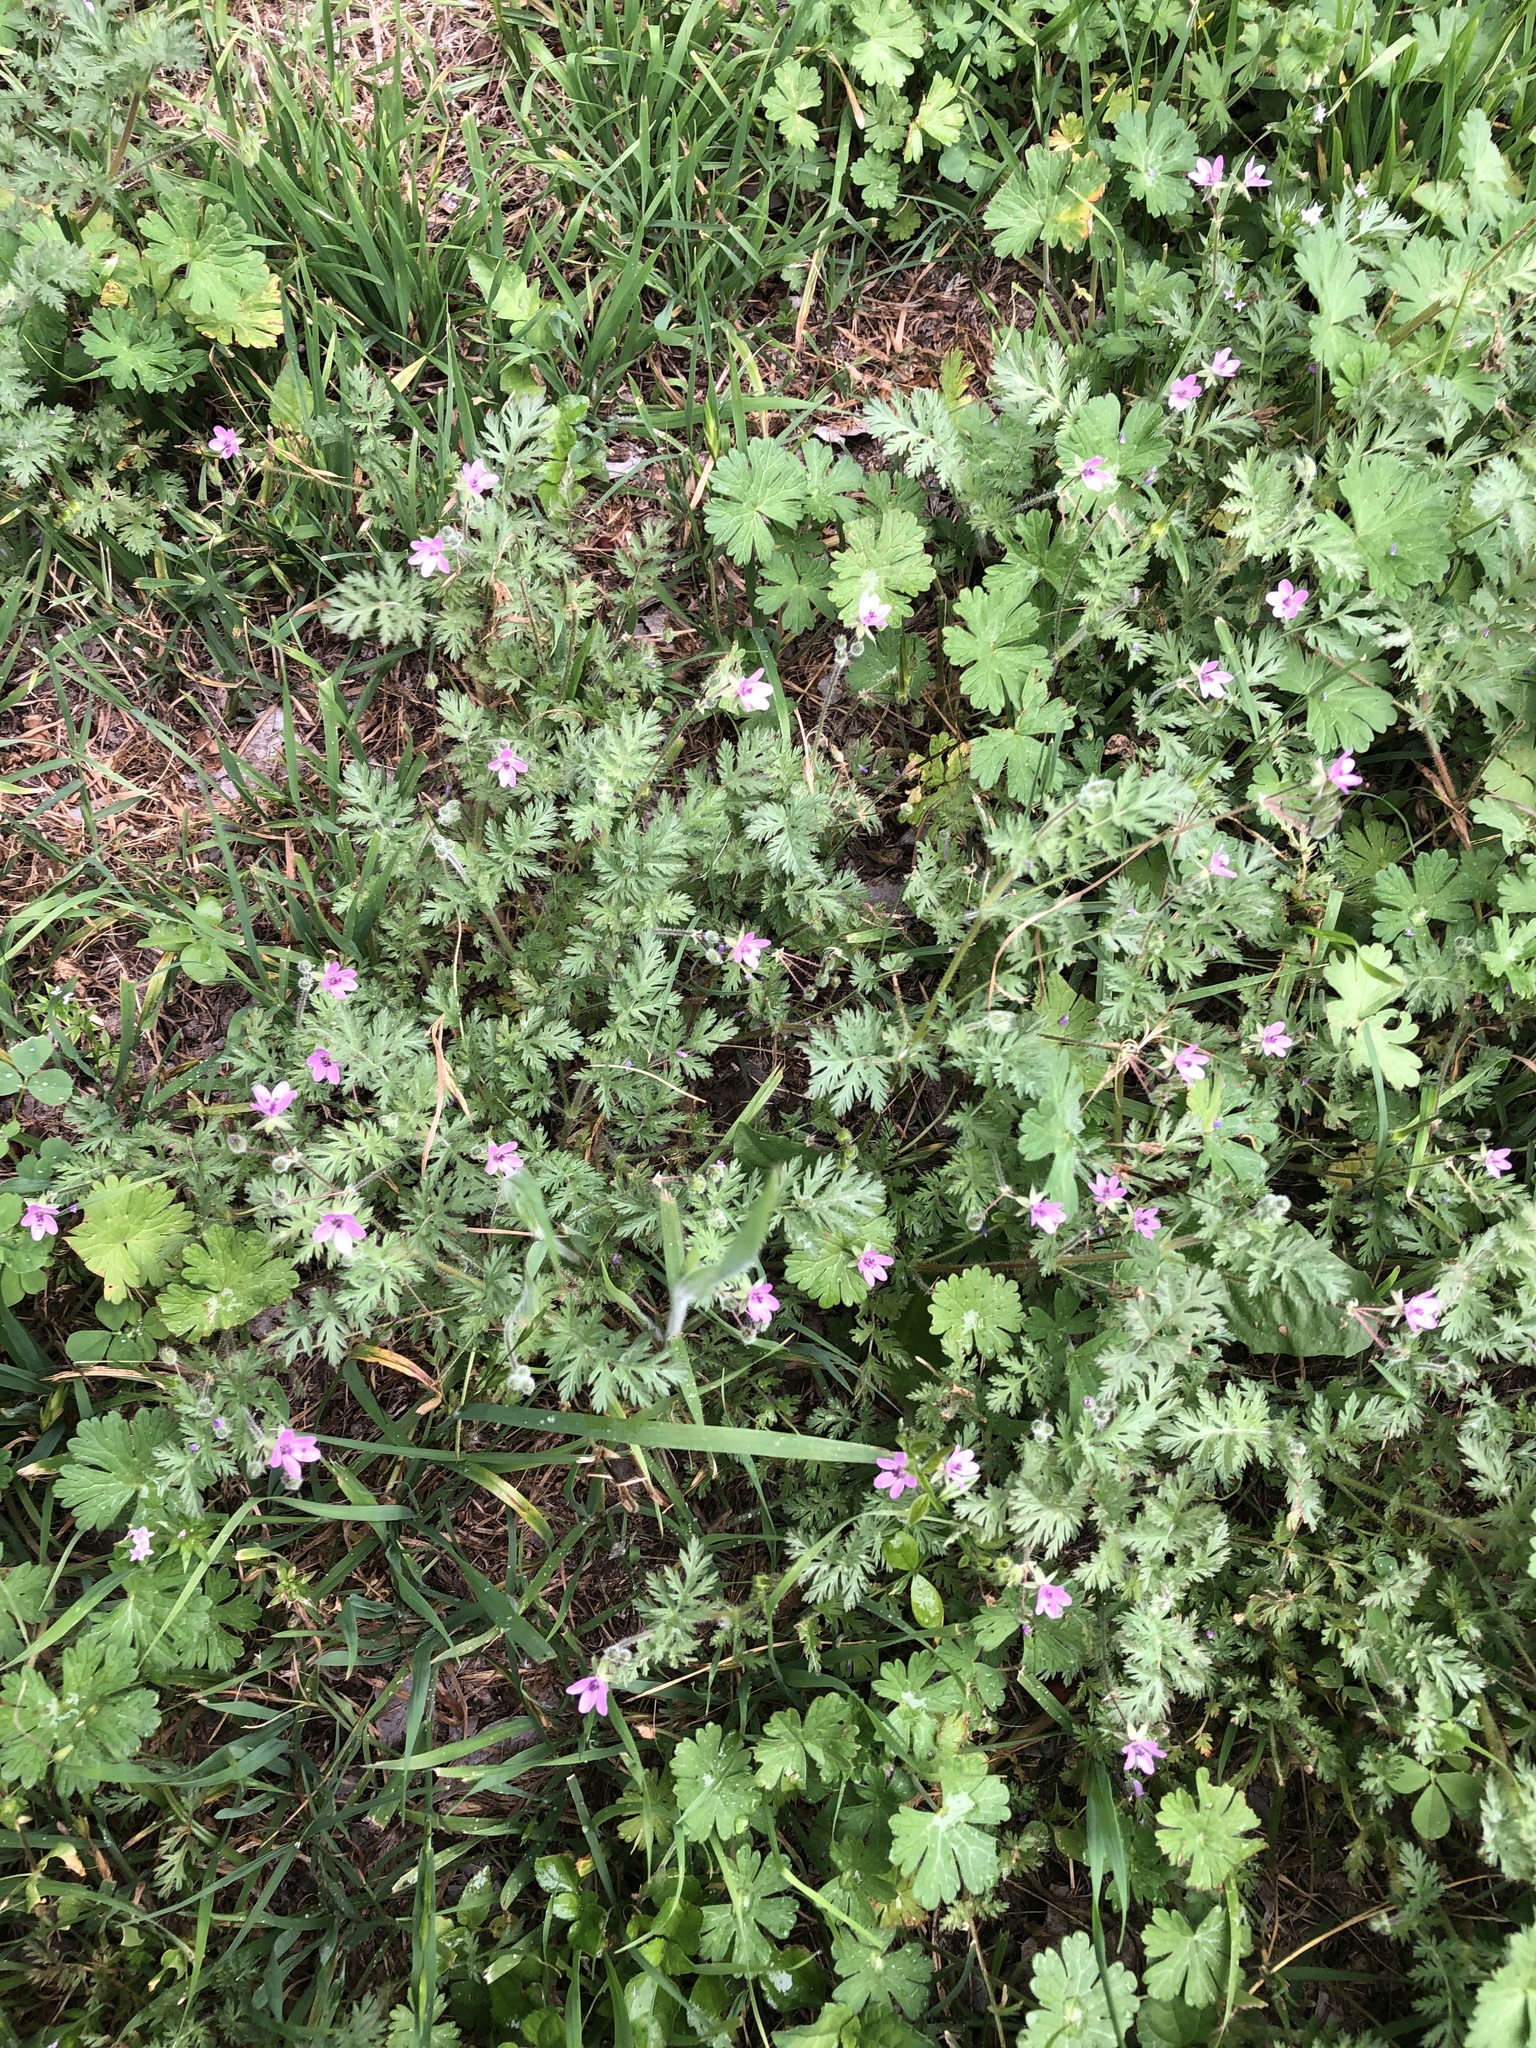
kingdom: Plantae
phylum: Tracheophyta
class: Magnoliopsida
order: Geraniales
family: Geraniaceae
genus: Erodium
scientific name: Erodium cicutarium
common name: Common stork's-bill
